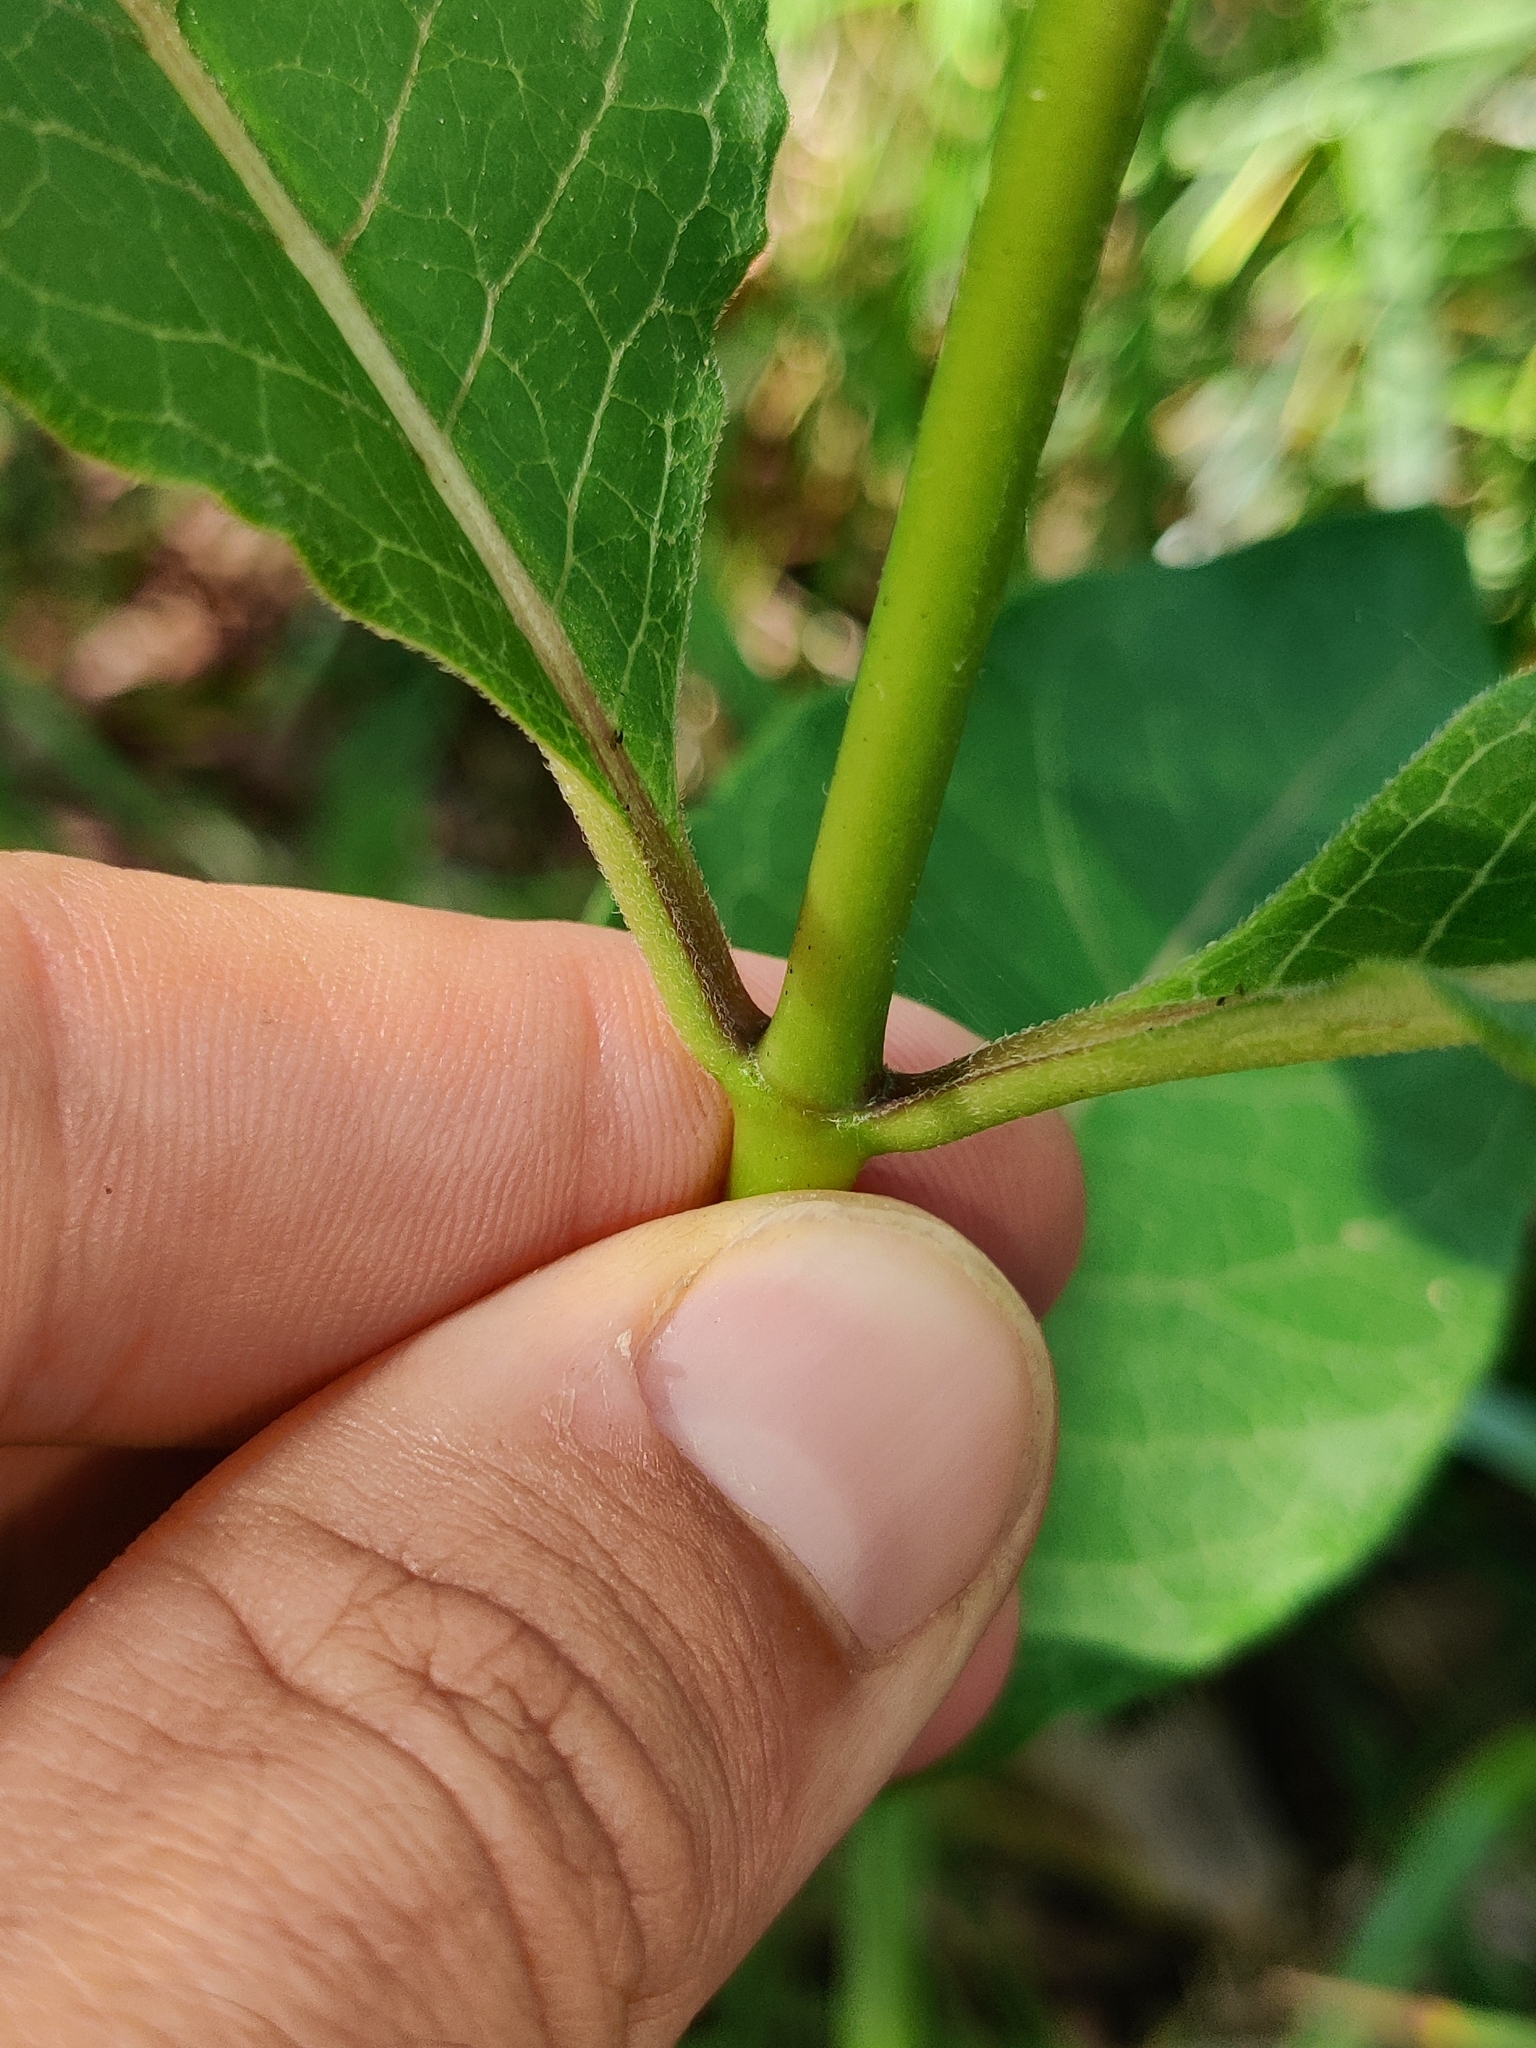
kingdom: Plantae
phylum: Tracheophyta
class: Magnoliopsida
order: Gentianales
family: Apocynaceae
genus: Asclepias
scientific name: Asclepias purpurascens
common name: Purple milkweed
